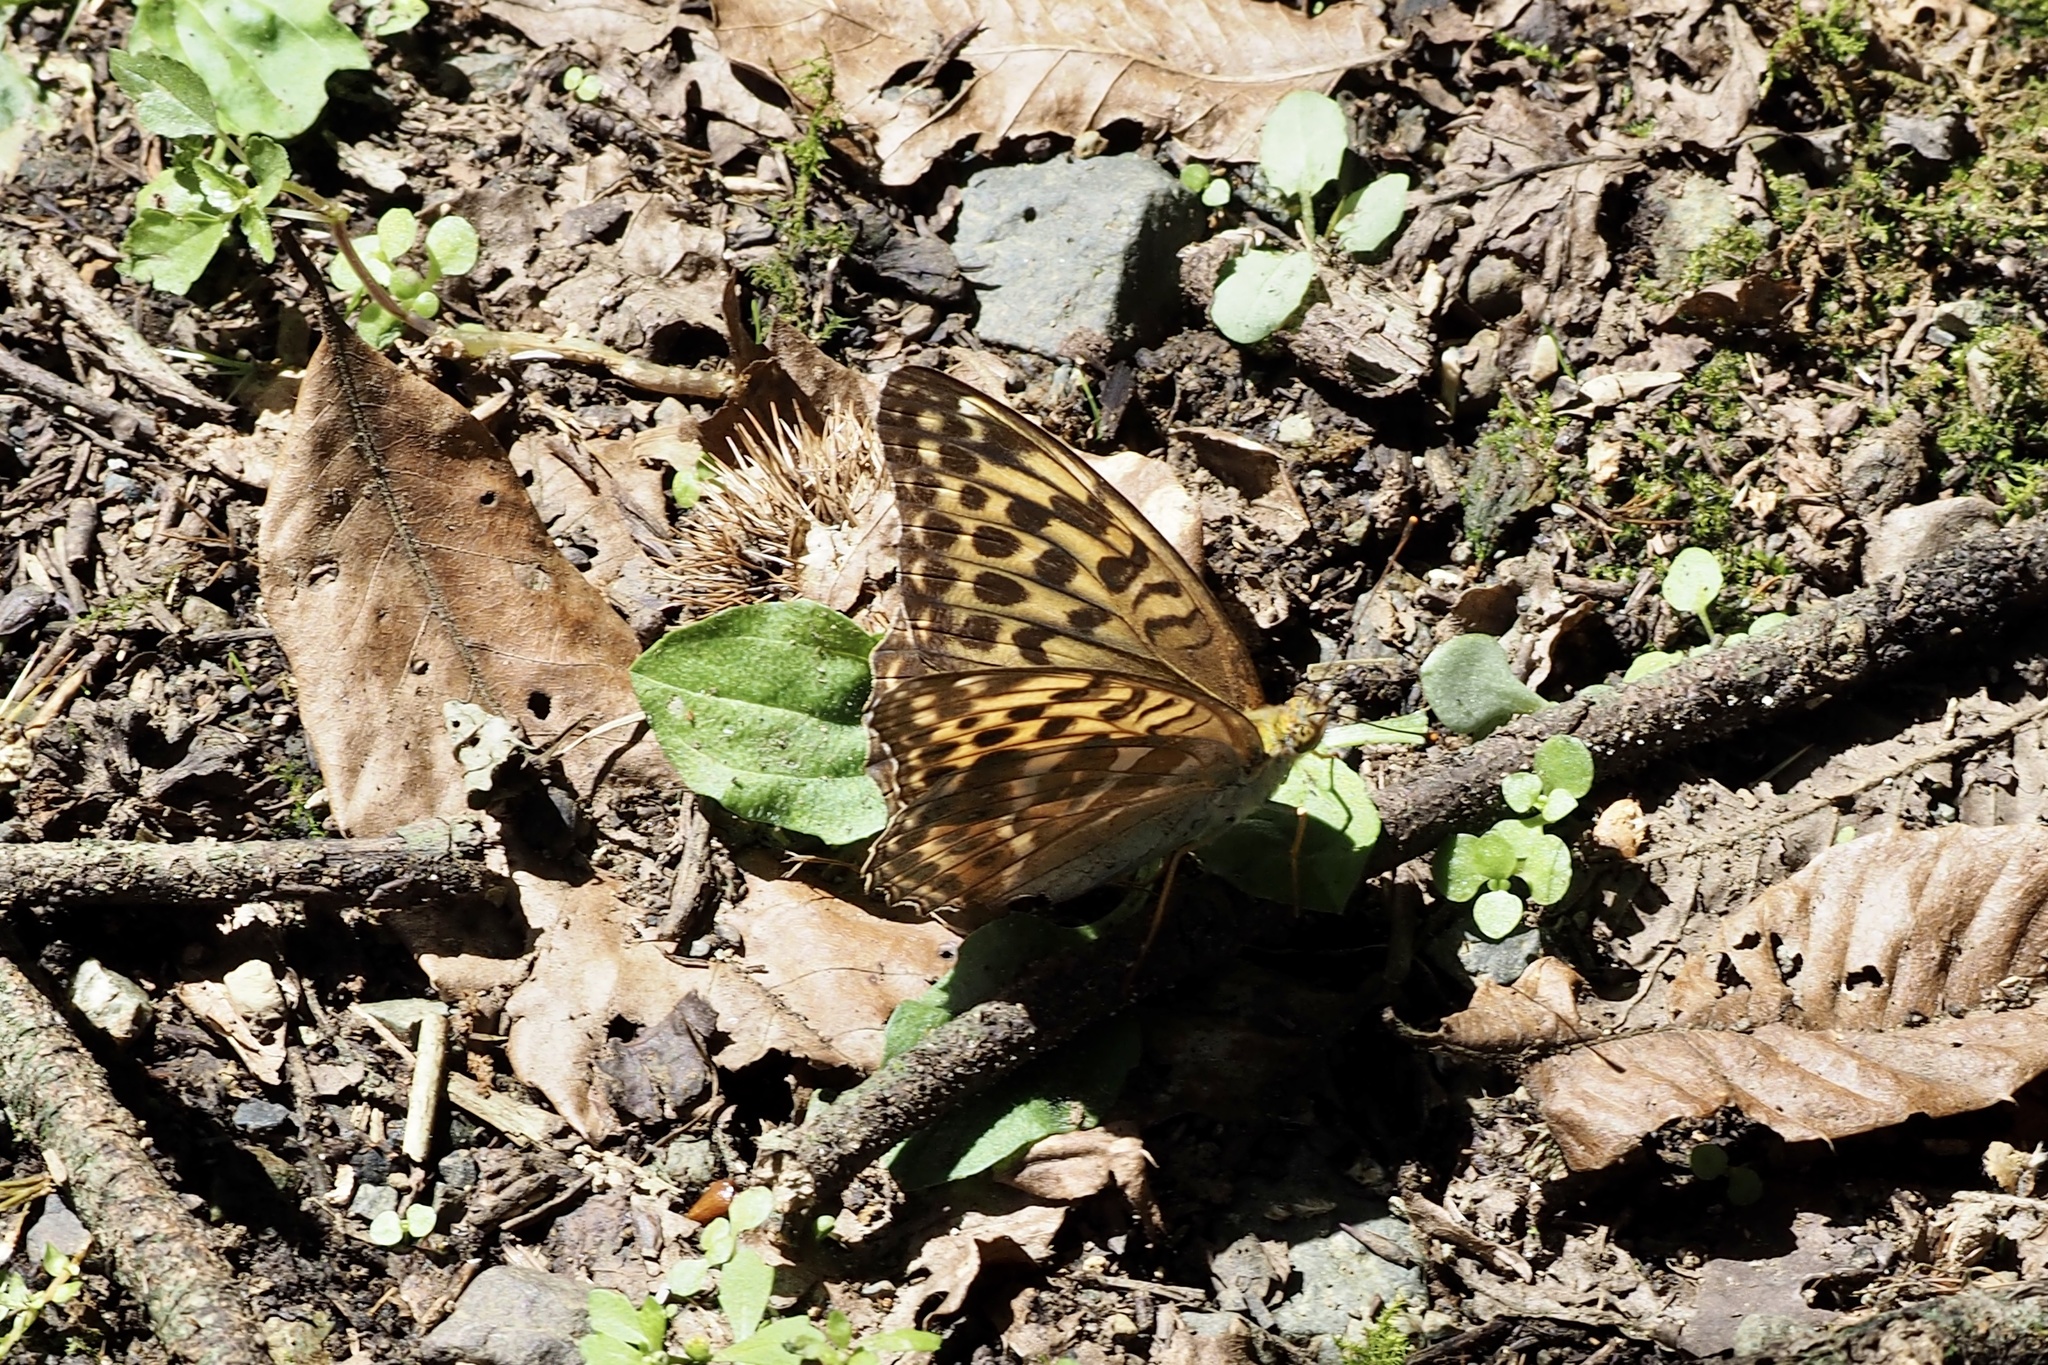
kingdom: Animalia
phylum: Arthropoda
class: Insecta
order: Lepidoptera
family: Nymphalidae
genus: Argynnis
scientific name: Argynnis paphia
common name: Silver-washed fritillary
